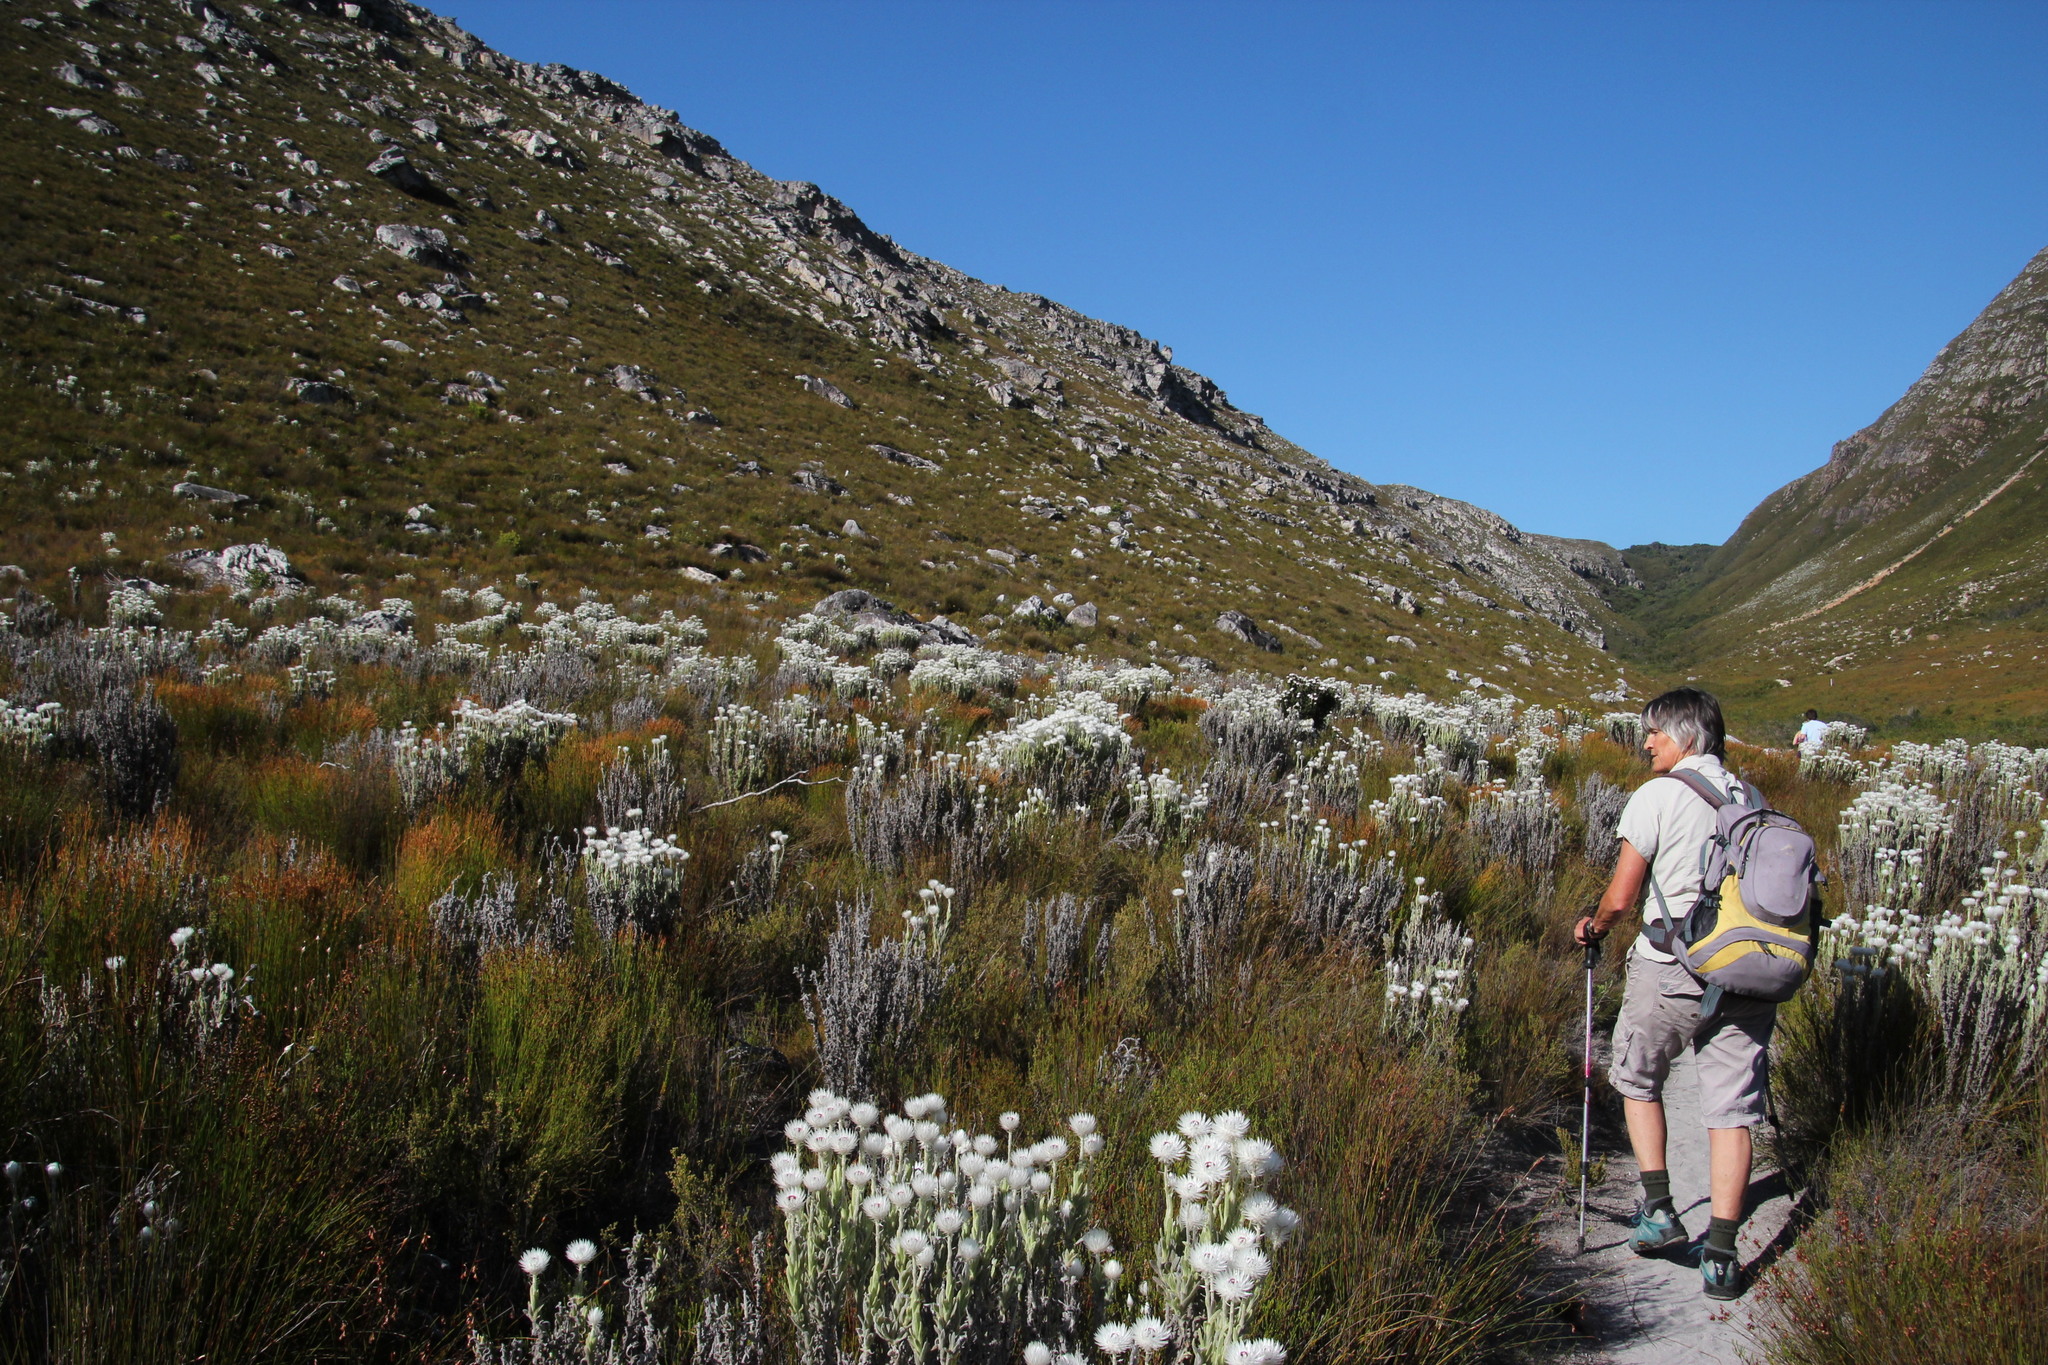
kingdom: Plantae
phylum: Tracheophyta
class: Magnoliopsida
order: Asterales
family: Asteraceae
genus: Syncarpha
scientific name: Syncarpha vestita
